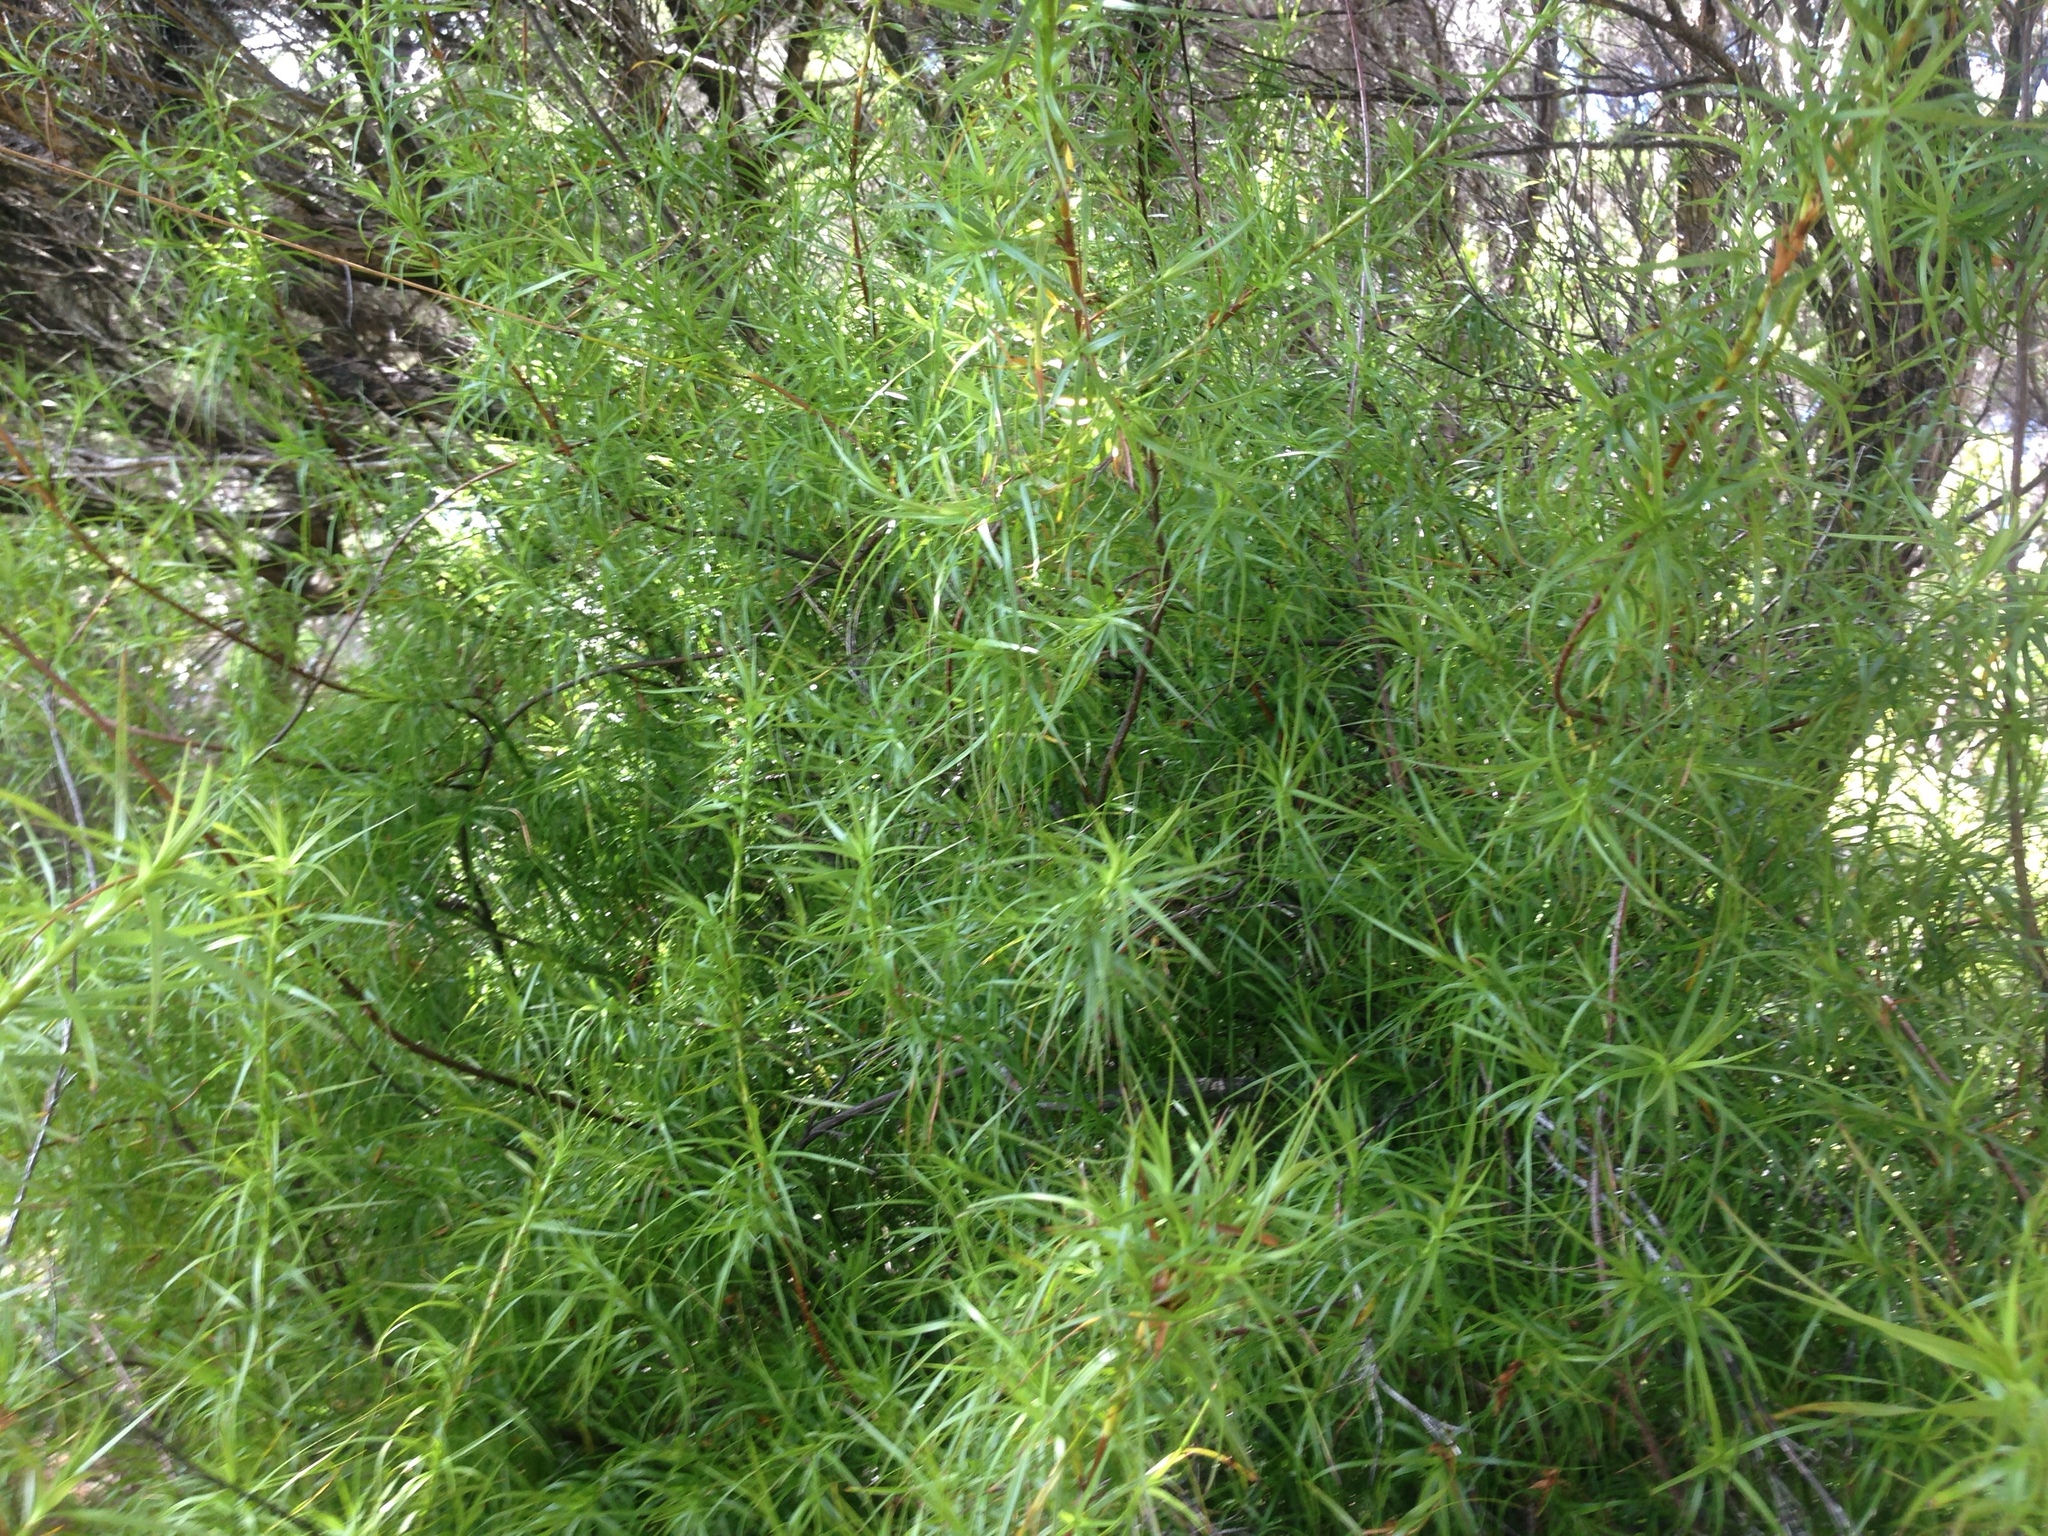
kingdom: Plantae
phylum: Tracheophyta
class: Magnoliopsida
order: Ericales
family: Ericaceae
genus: Dracophyllum
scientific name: Dracophyllum sinclairii
